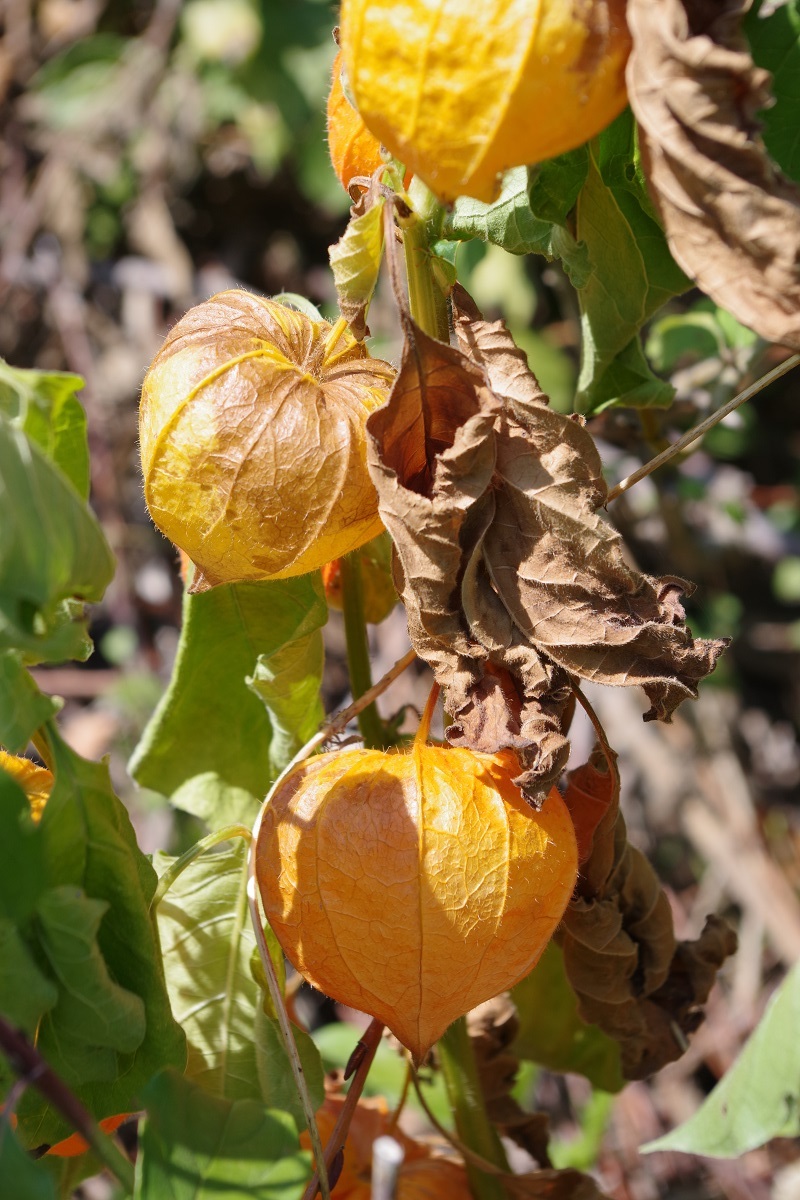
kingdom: Plantae
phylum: Tracheophyta
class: Magnoliopsida
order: Solanales
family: Solanaceae
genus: Alkekengi
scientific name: Alkekengi officinarum
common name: Japanese-lantern
